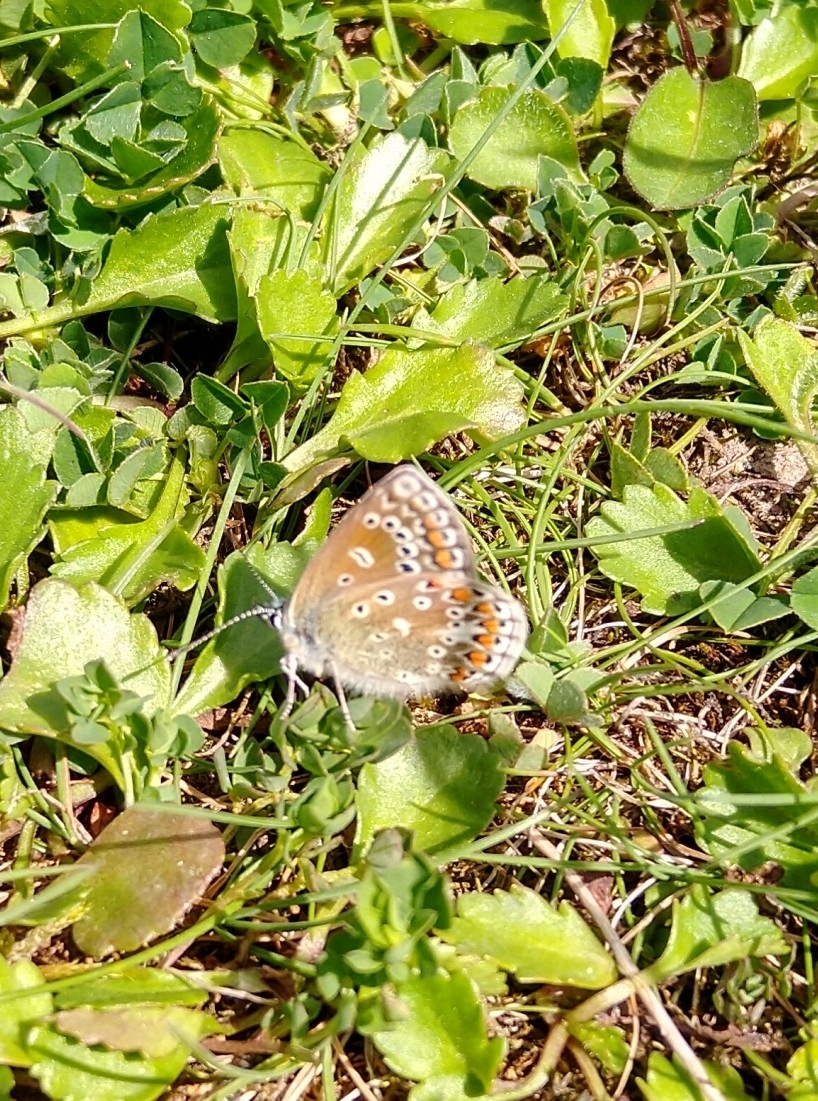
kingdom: Animalia
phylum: Arthropoda
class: Insecta
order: Lepidoptera
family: Lycaenidae
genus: Polyommatus
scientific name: Polyommatus icarus
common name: Common blue
